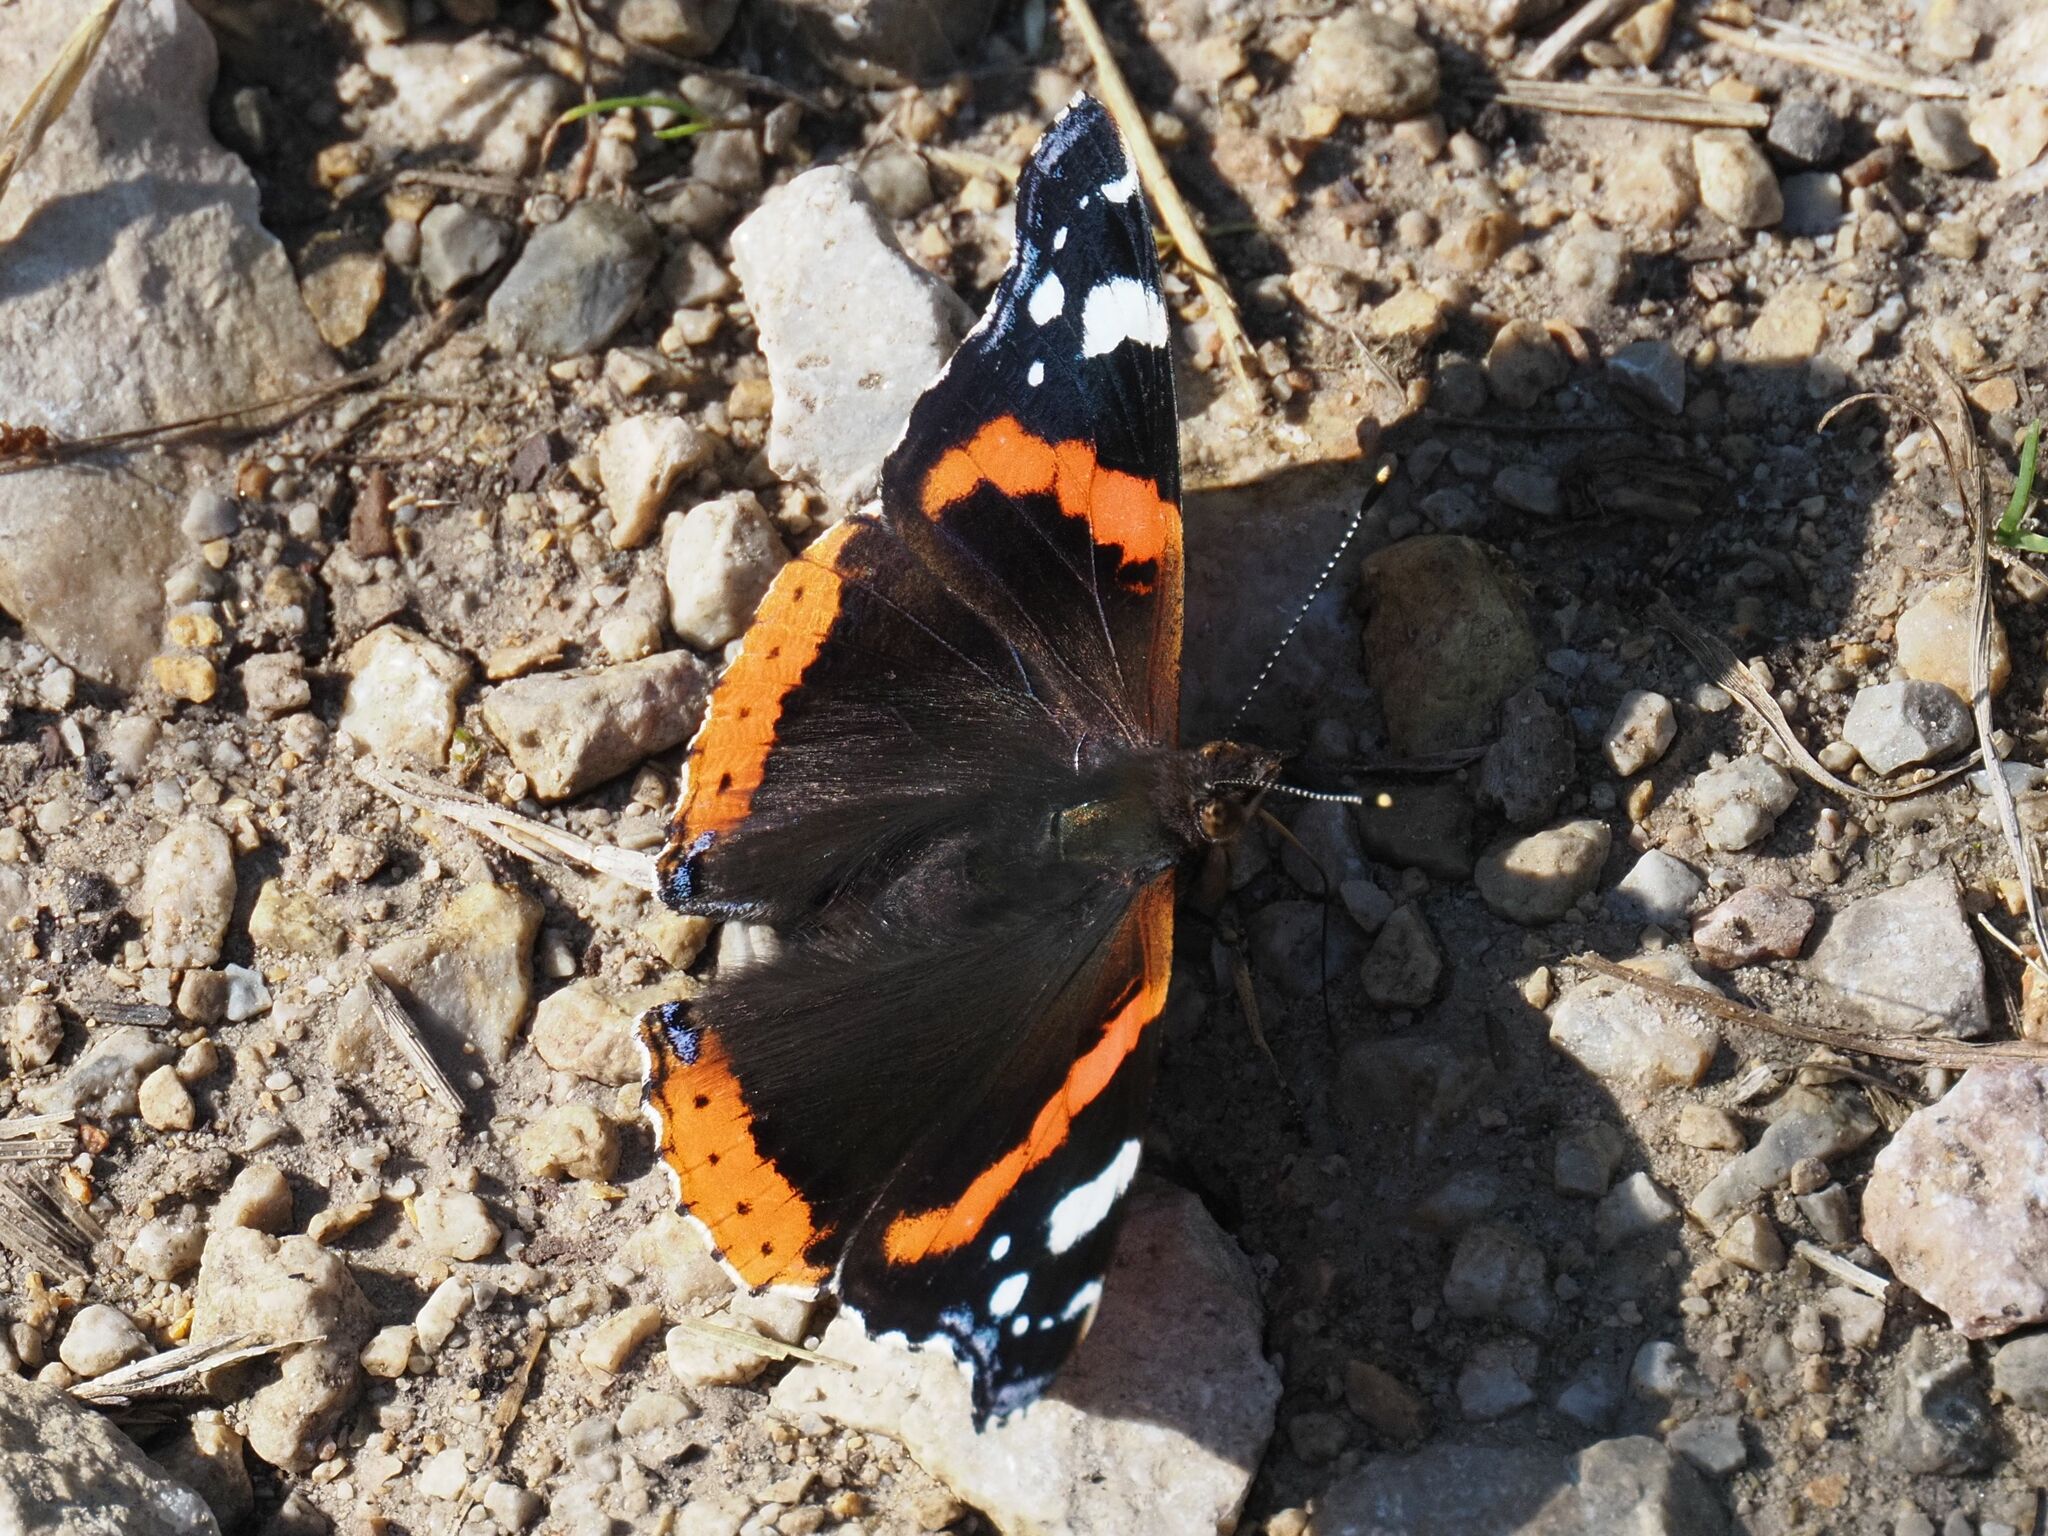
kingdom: Animalia
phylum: Arthropoda
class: Insecta
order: Lepidoptera
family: Nymphalidae
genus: Vanessa
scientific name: Vanessa atalanta
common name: Red admiral
